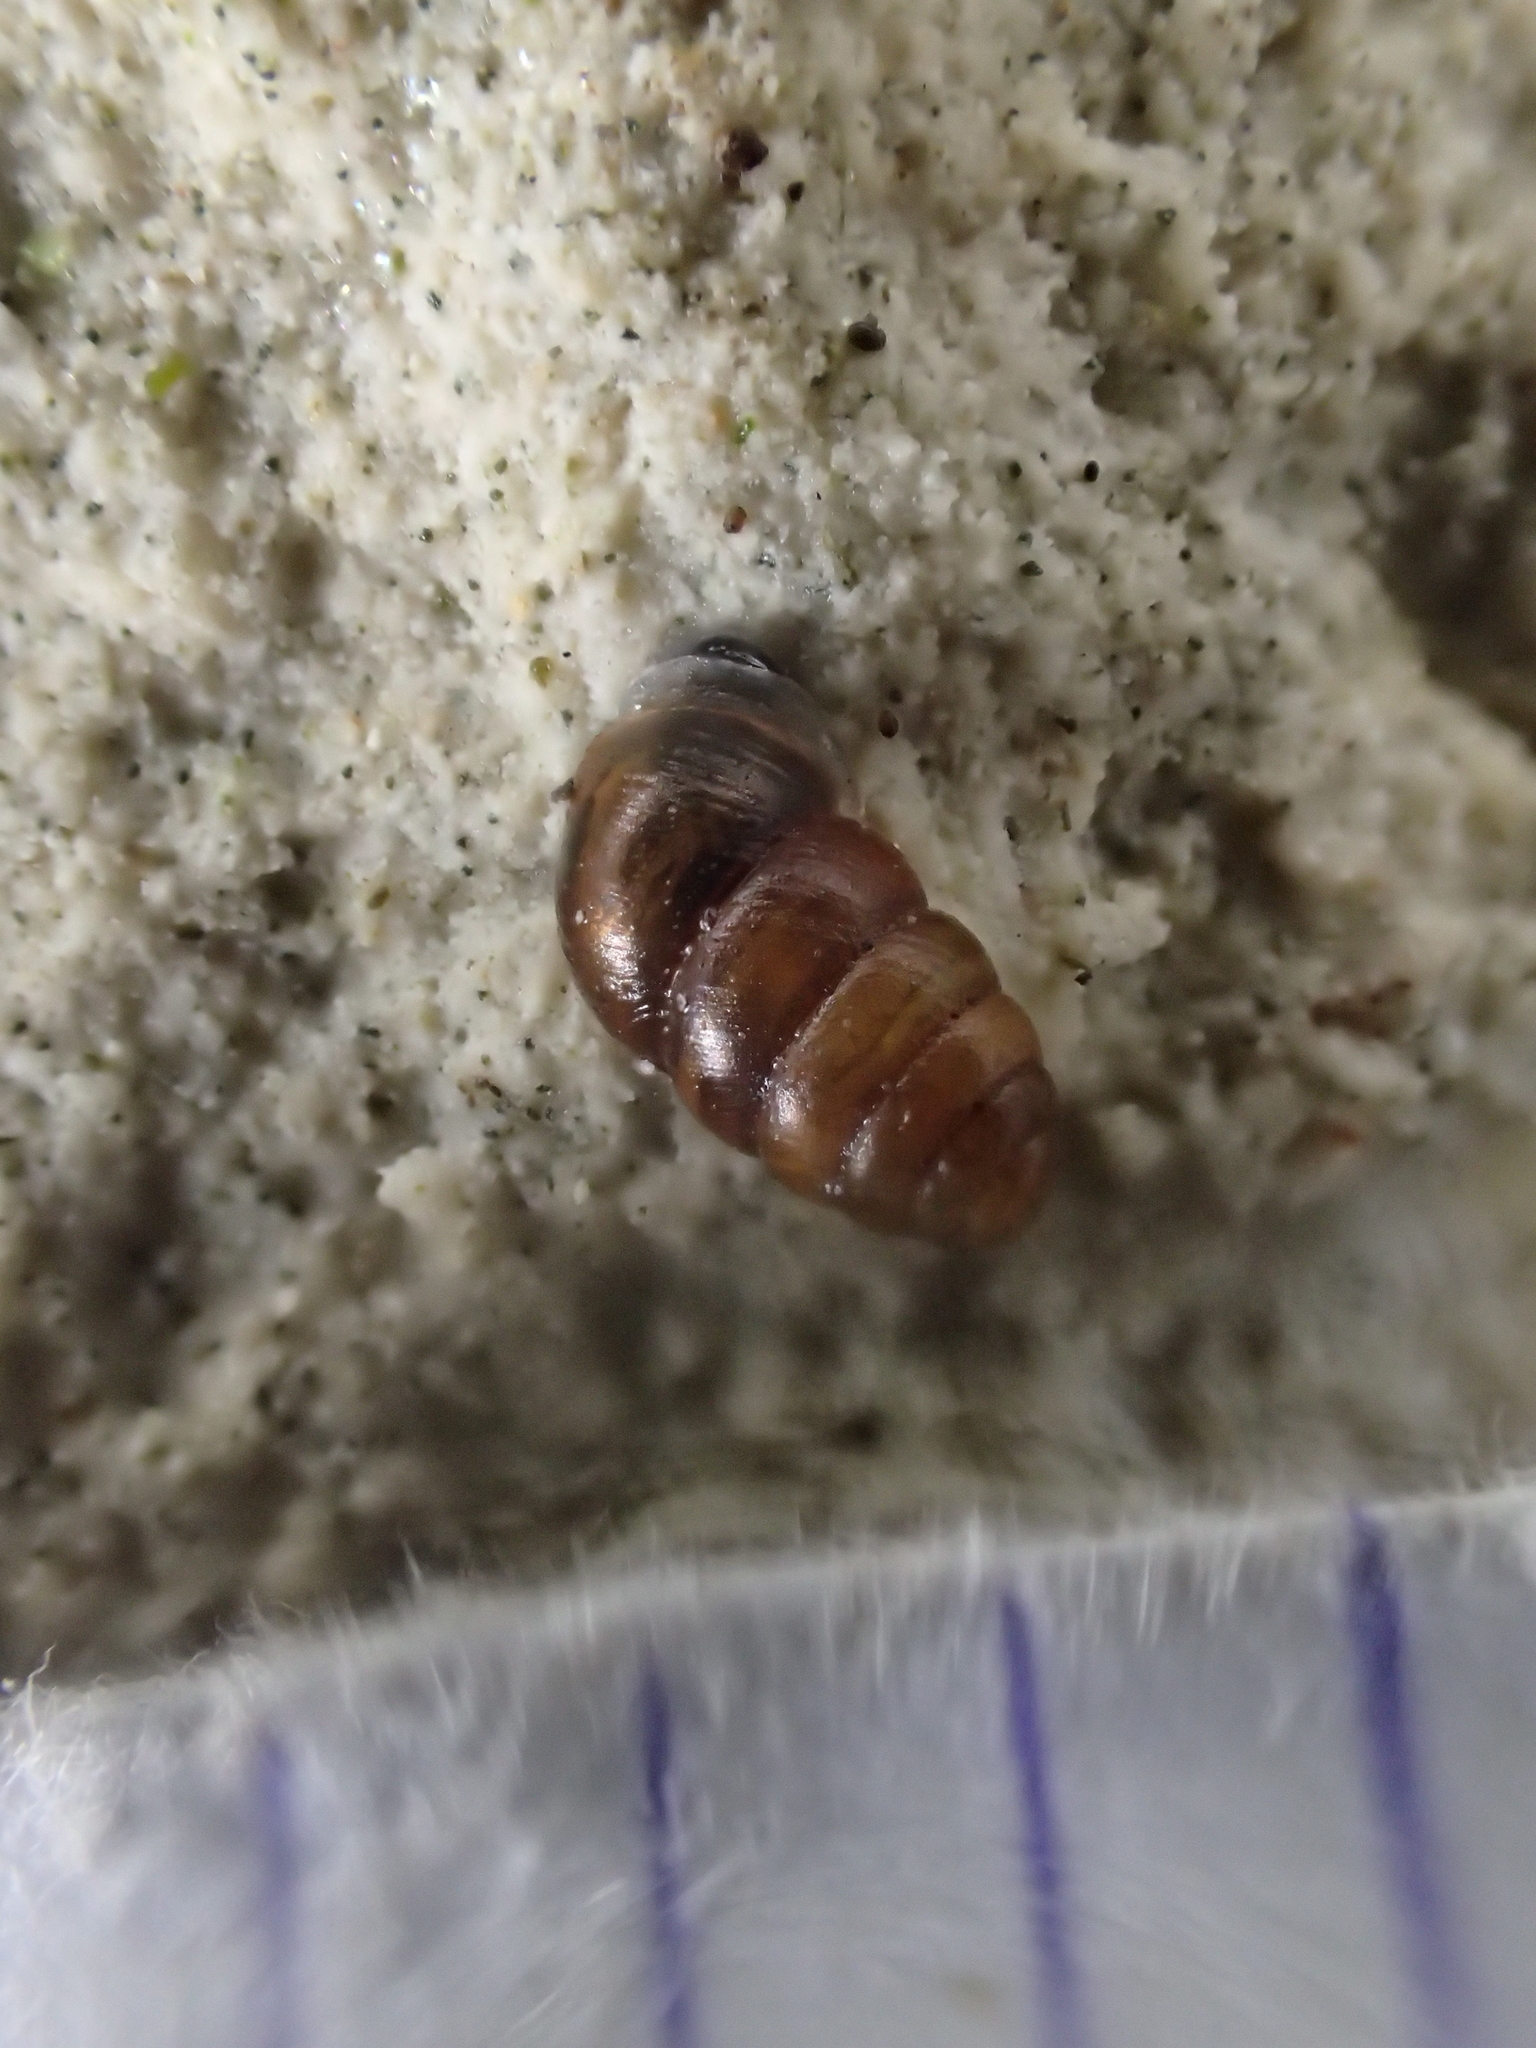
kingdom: Animalia
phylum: Mollusca
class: Gastropoda
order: Stylommatophora
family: Lauriidae
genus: Lauria
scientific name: Lauria cylindracea
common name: Common chrysalis snail
